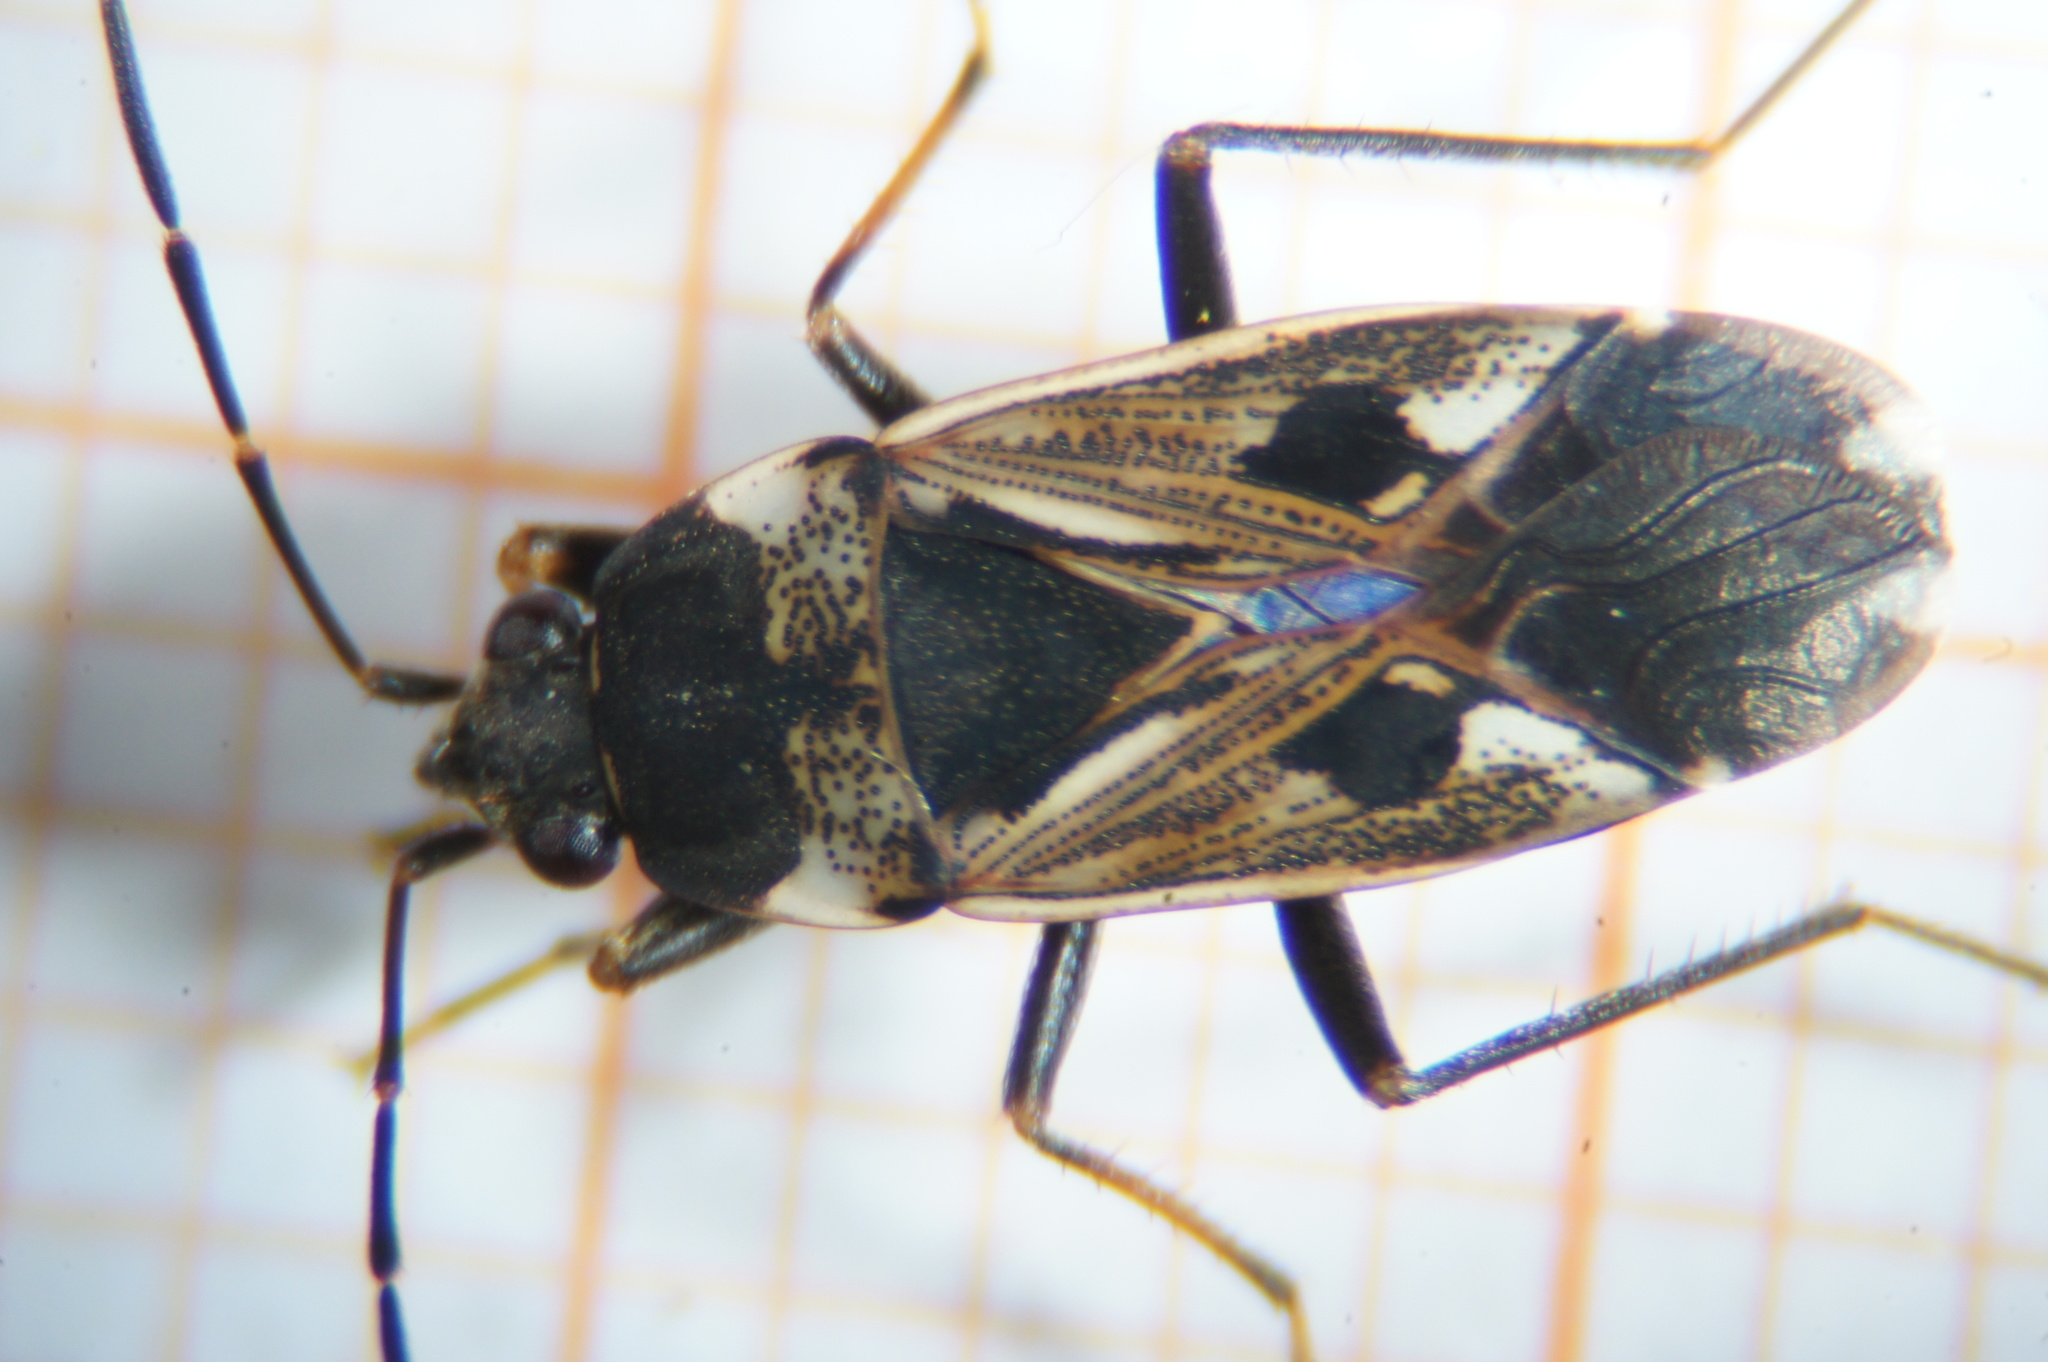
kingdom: Animalia
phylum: Arthropoda
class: Insecta
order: Hemiptera
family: Rhyparochromidae
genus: Rhyparochromus
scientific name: Rhyparochromus vulgaris
